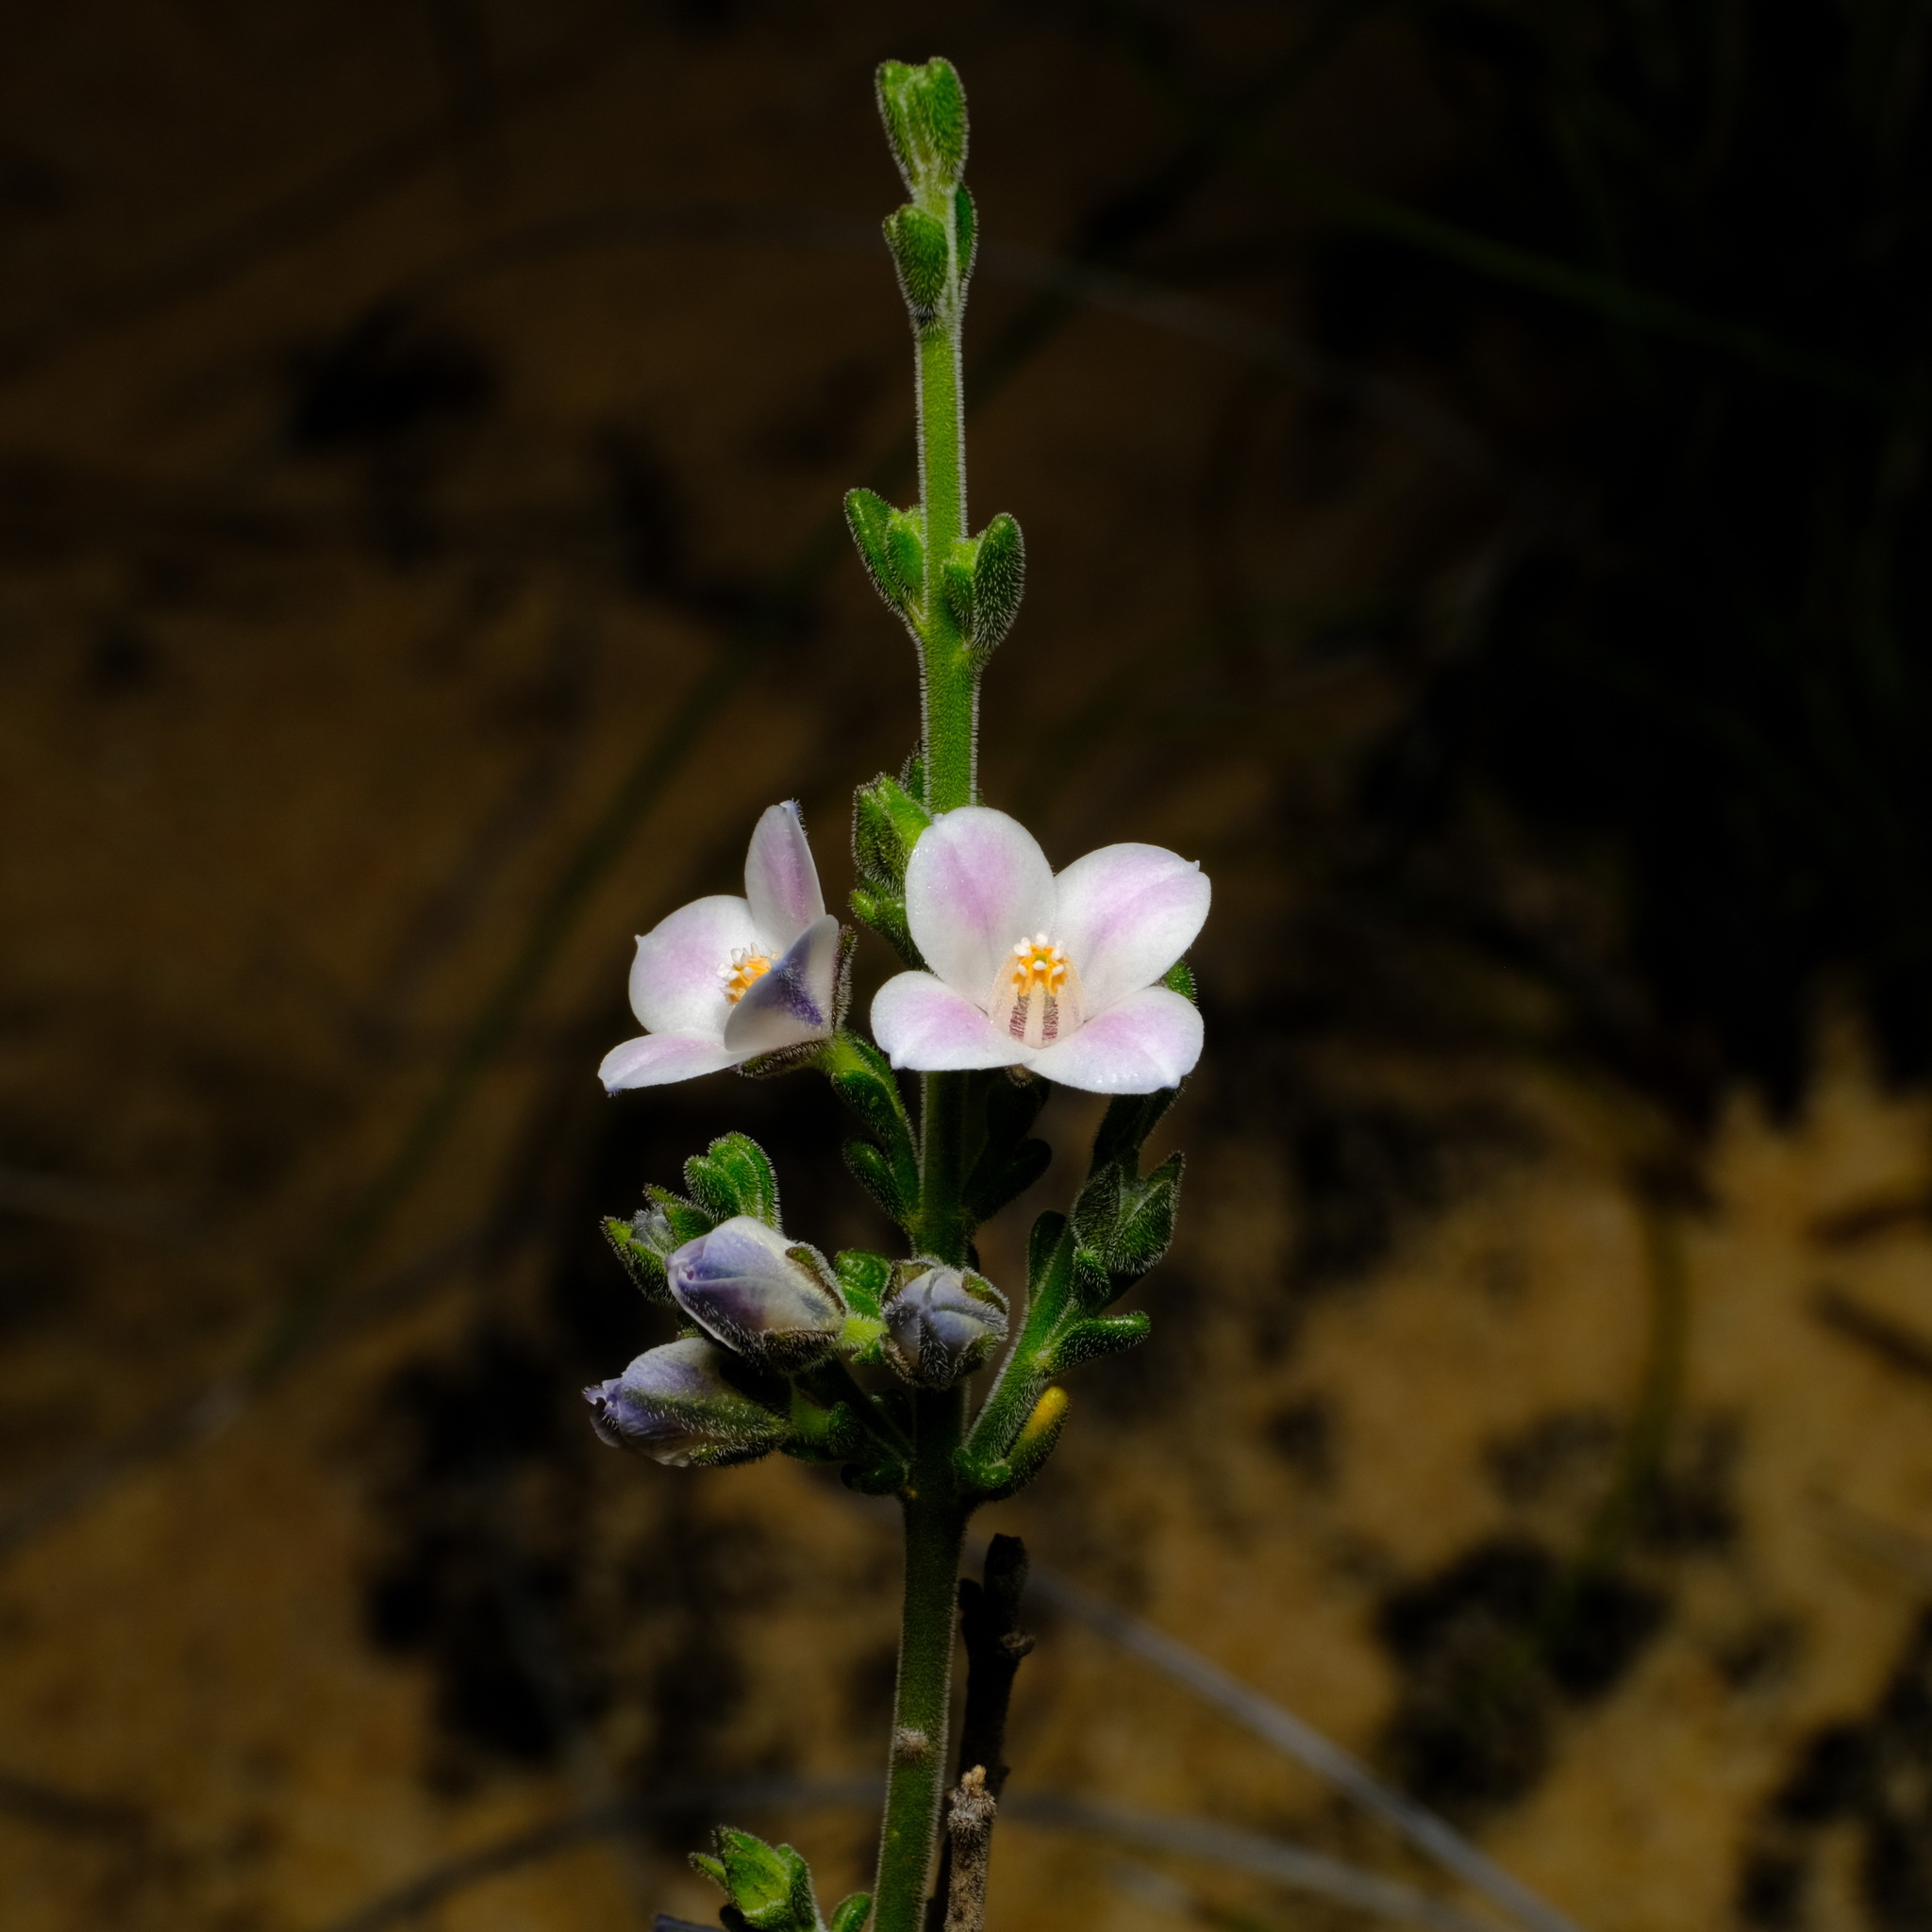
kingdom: Plantae
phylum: Tracheophyta
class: Magnoliopsida
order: Sapindales
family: Rutaceae
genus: Cyanothamnus
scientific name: Cyanothamnus coerulescens
